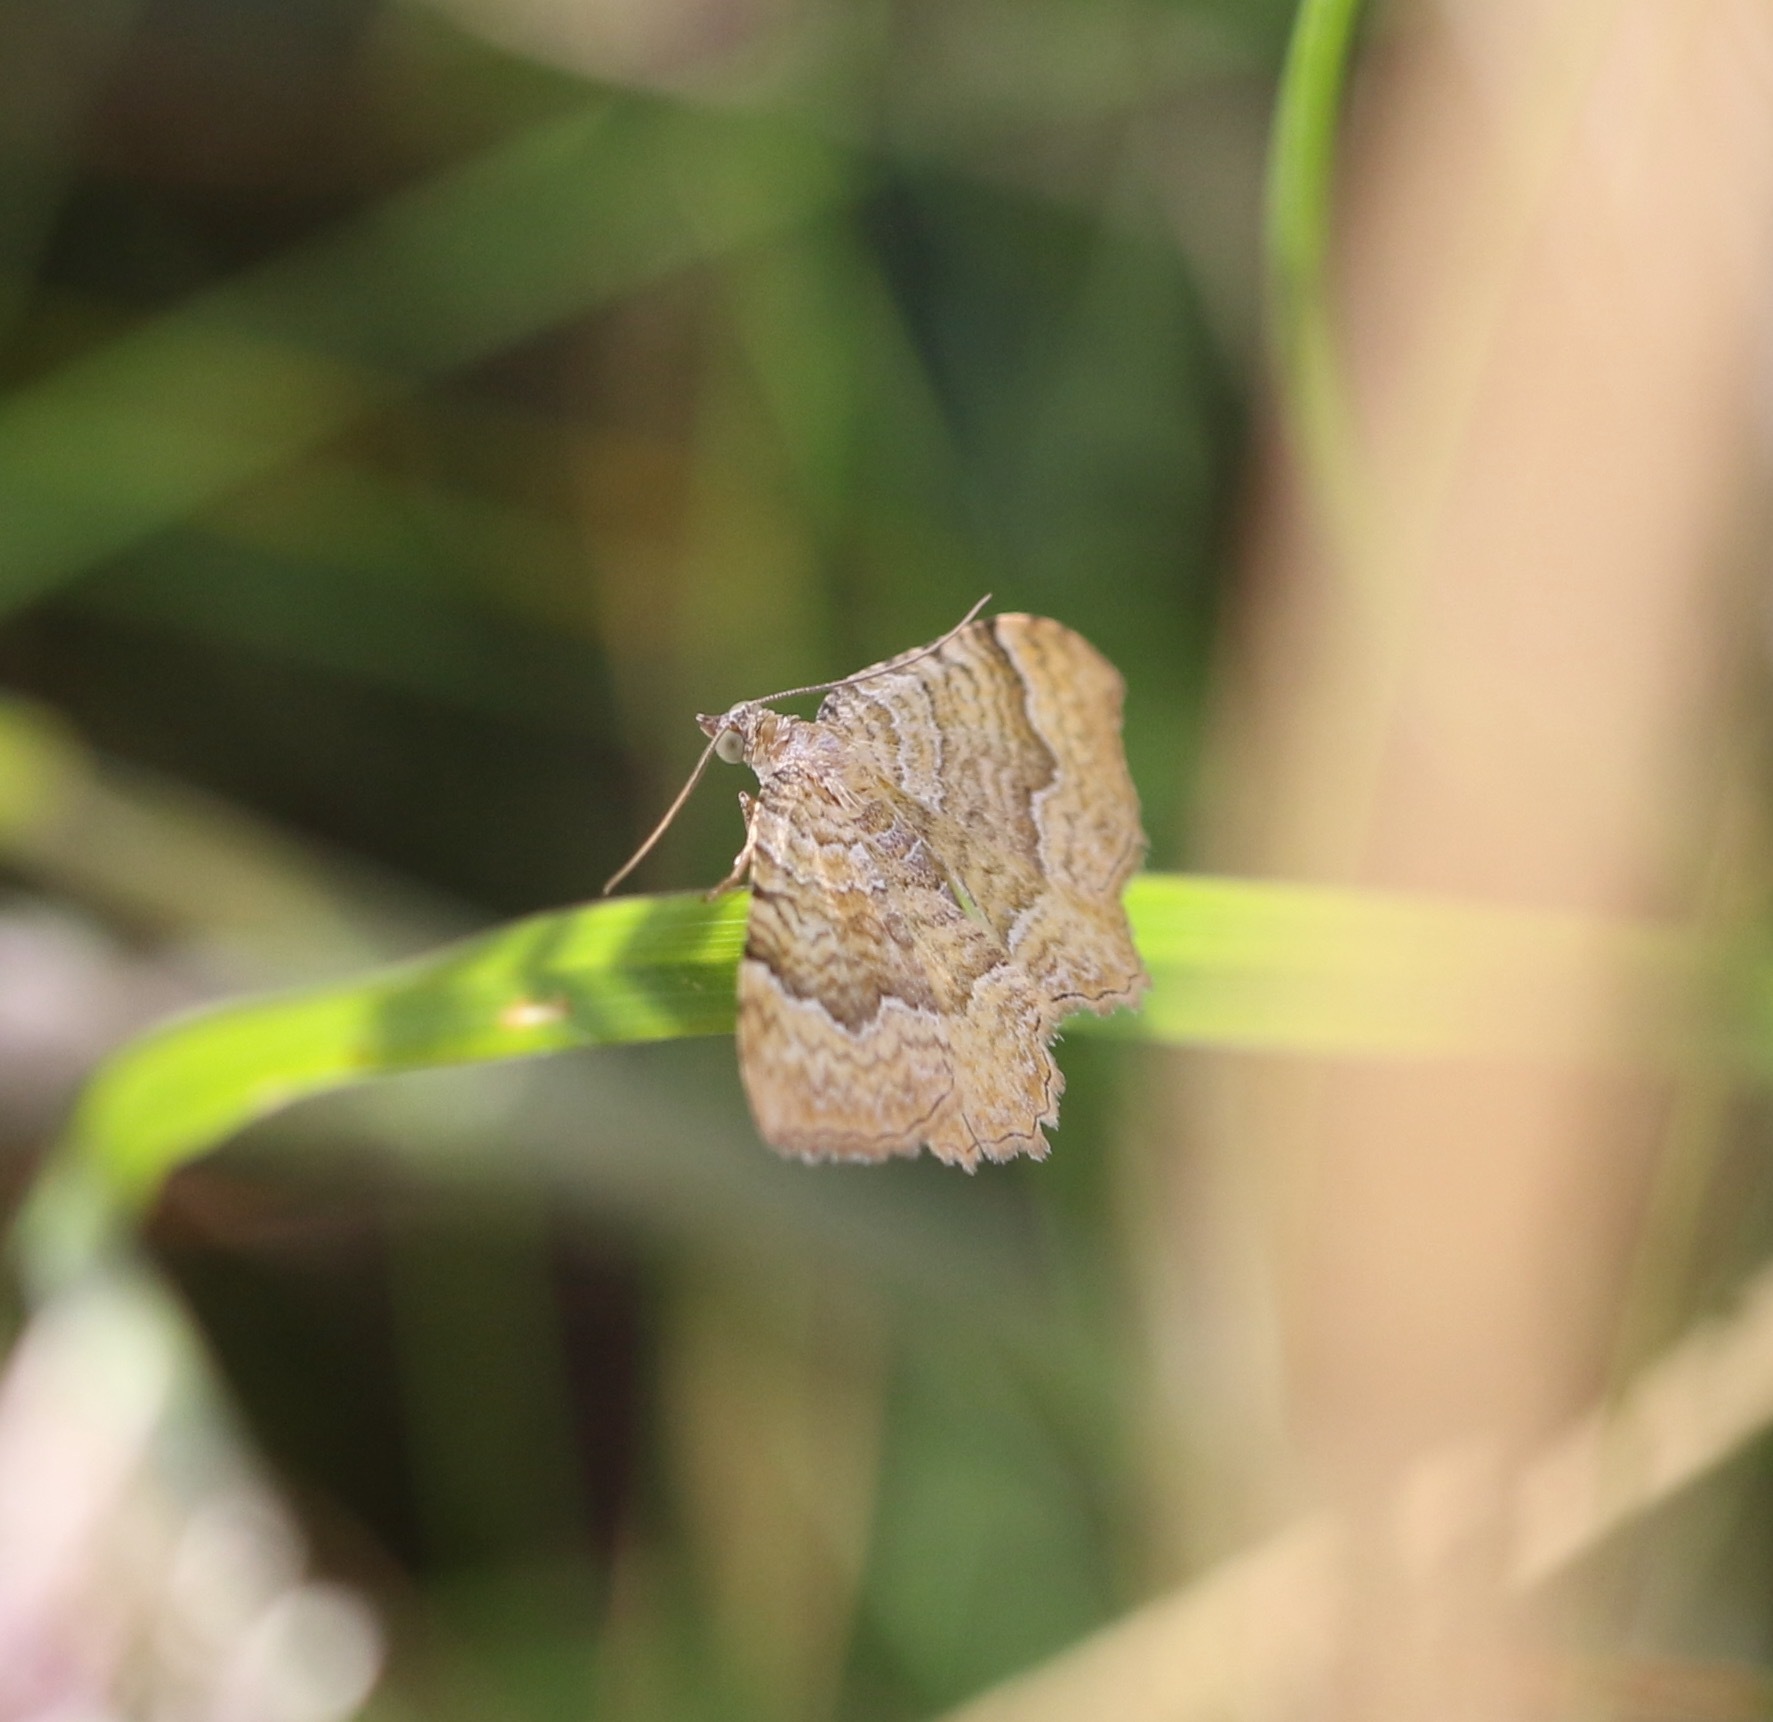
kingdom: Animalia
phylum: Arthropoda
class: Insecta
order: Lepidoptera
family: Geometridae
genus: Camptogramma
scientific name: Camptogramma bilineata
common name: Yellow shell
